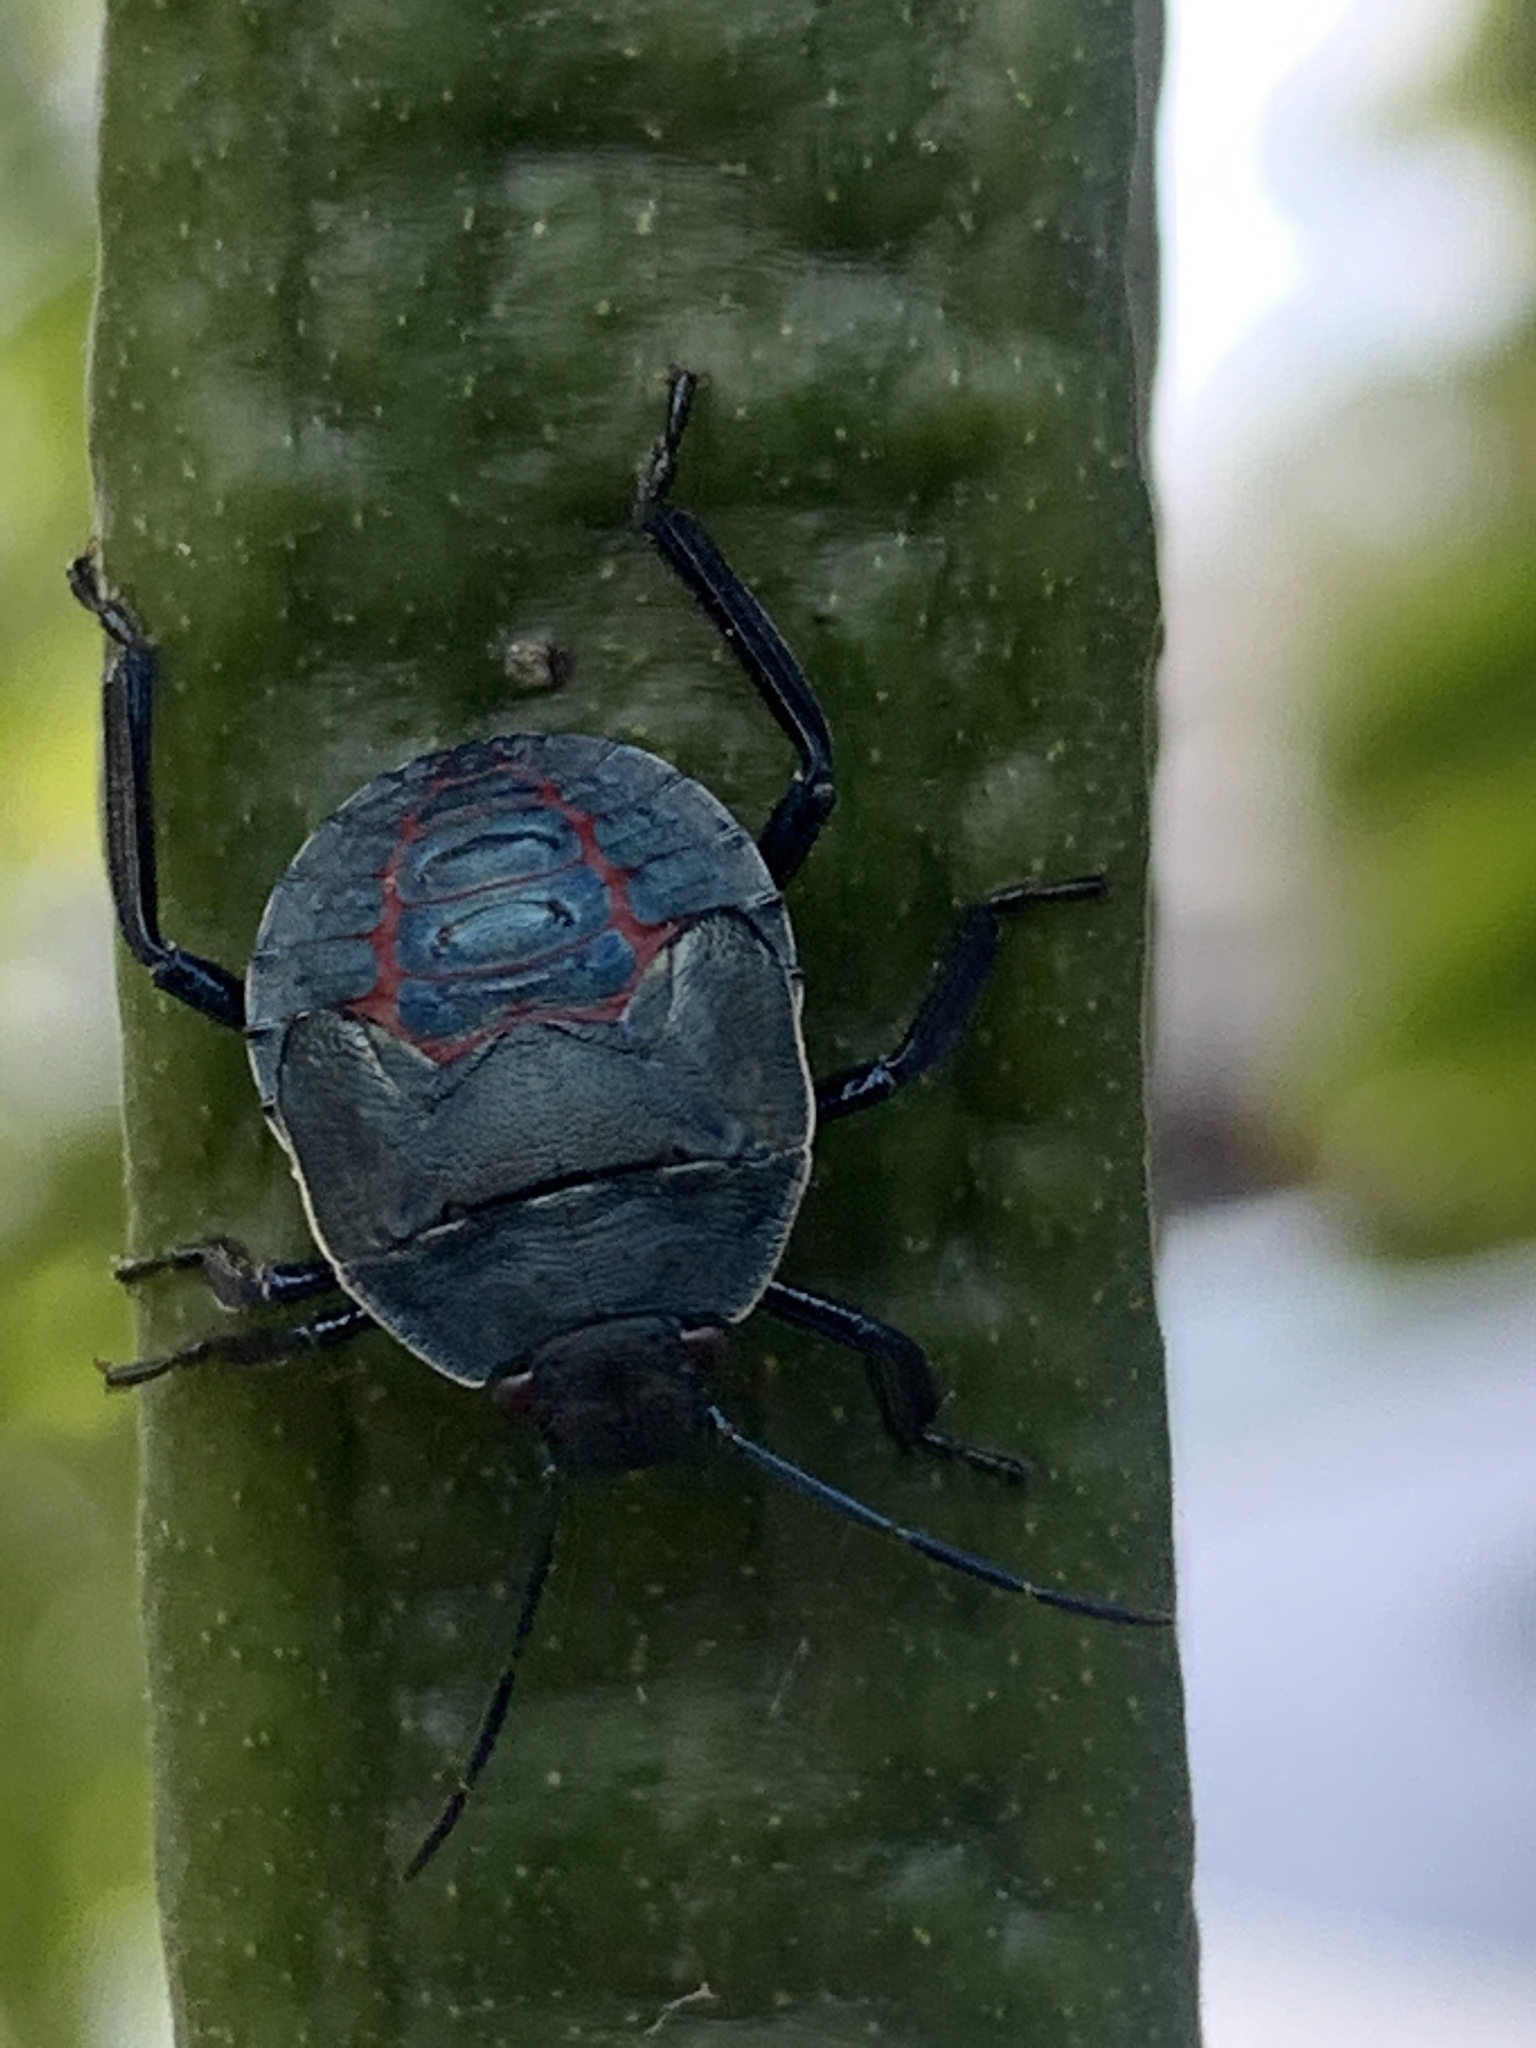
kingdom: Animalia
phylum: Arthropoda
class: Insecta
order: Hemiptera
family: Pentatomidae
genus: Pellaea
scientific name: Pellaea stictica
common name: Stink bug
